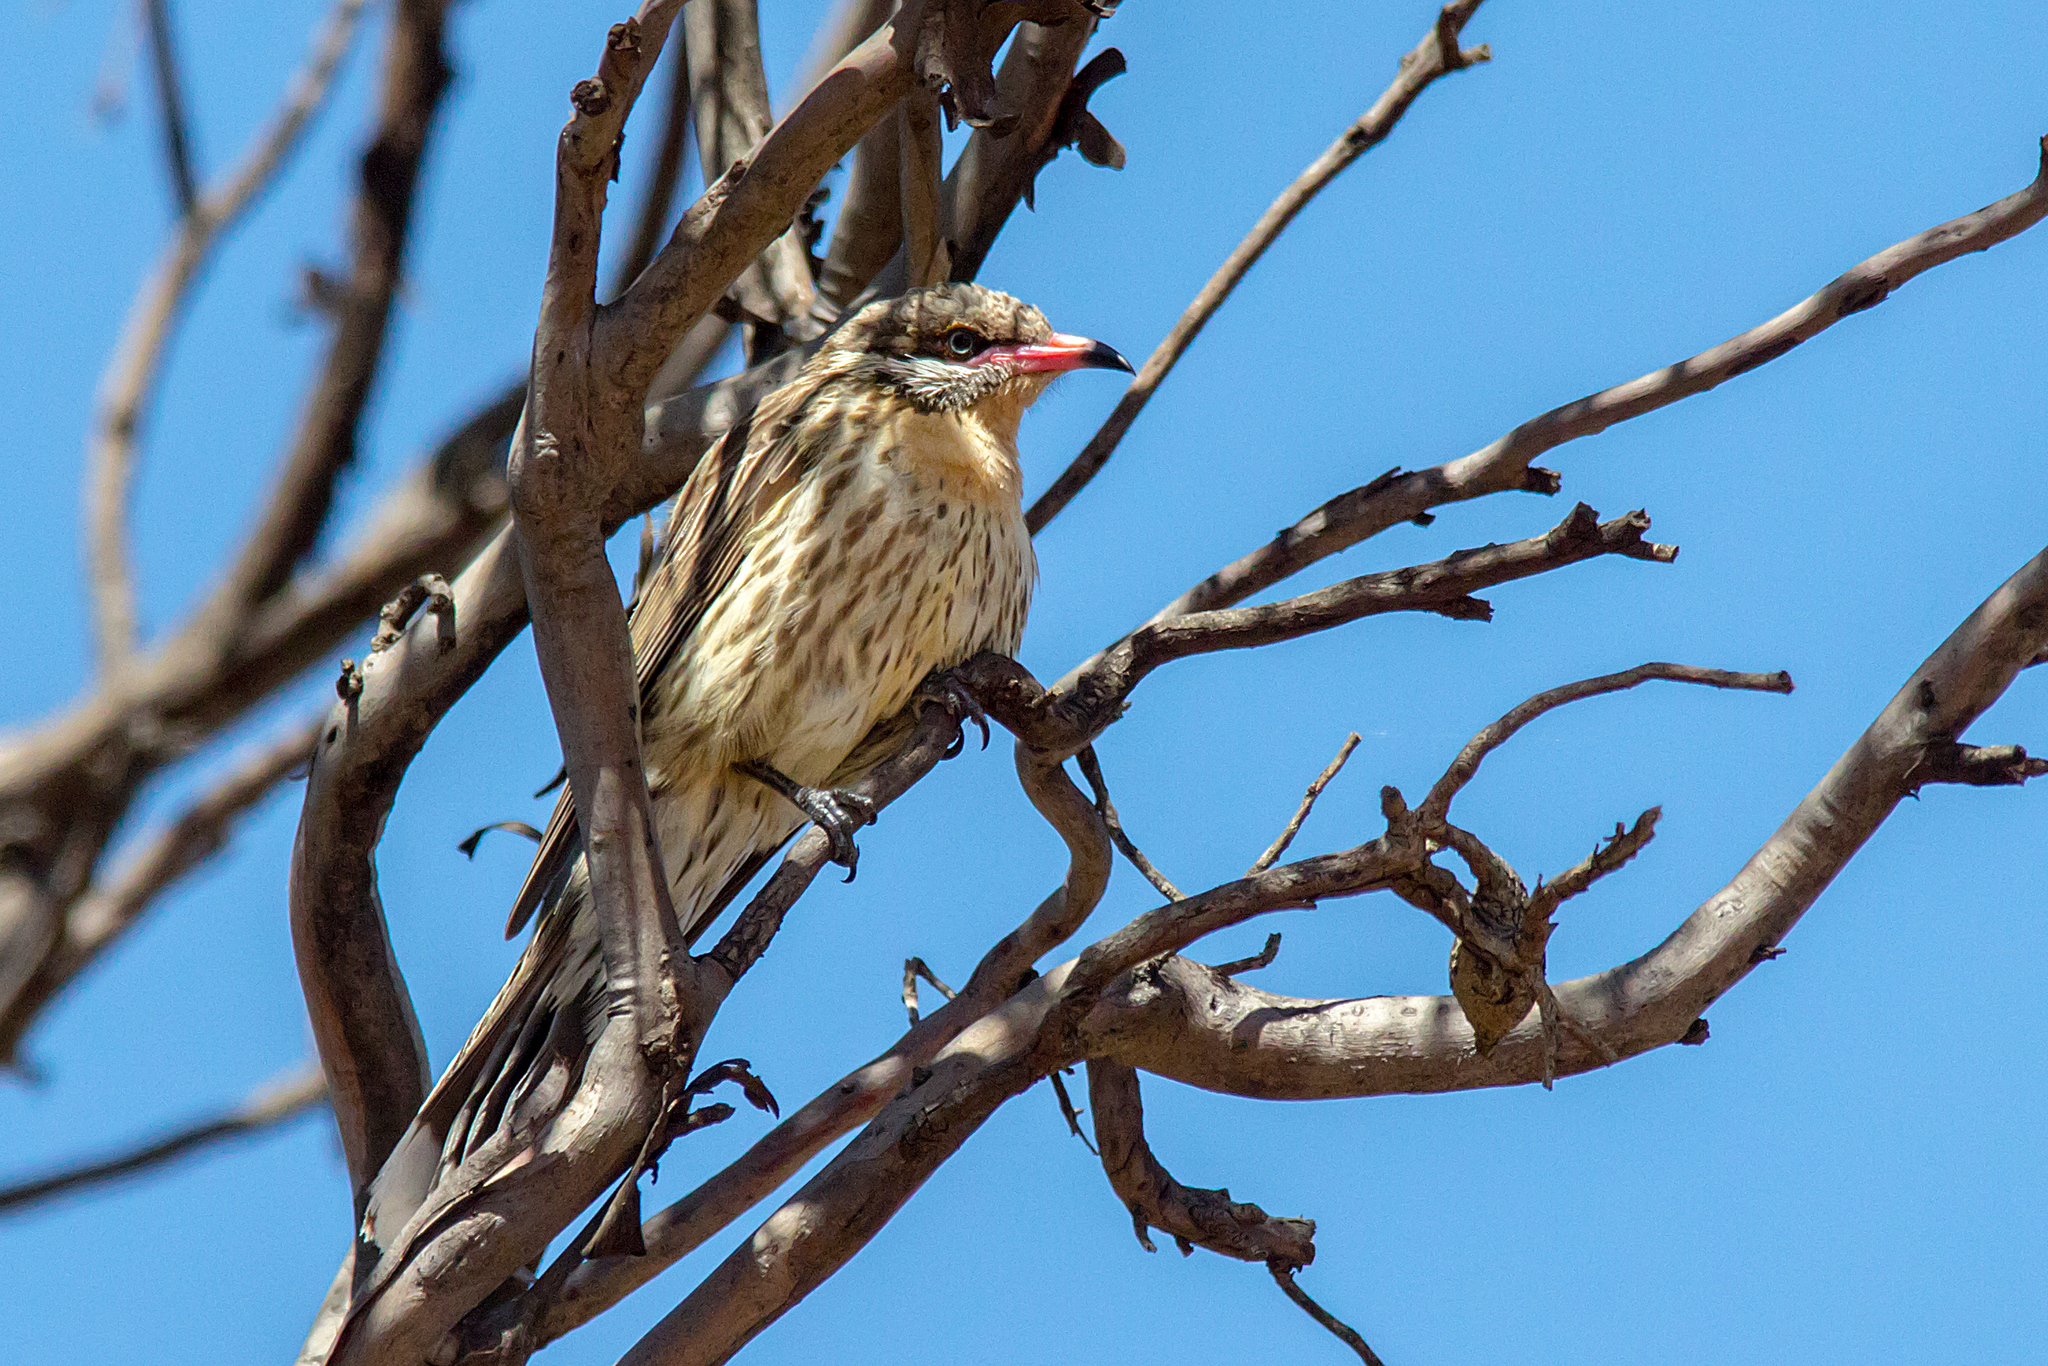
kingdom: Animalia
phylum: Chordata
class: Aves
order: Passeriformes
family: Meliphagidae
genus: Acanthagenys
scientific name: Acanthagenys rufogularis
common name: Spiny-cheeked honeyeater
